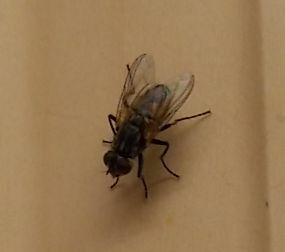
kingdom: Animalia
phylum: Arthropoda
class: Insecta
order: Diptera
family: Muscidae
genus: Musca
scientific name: Musca domestica
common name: House fly
